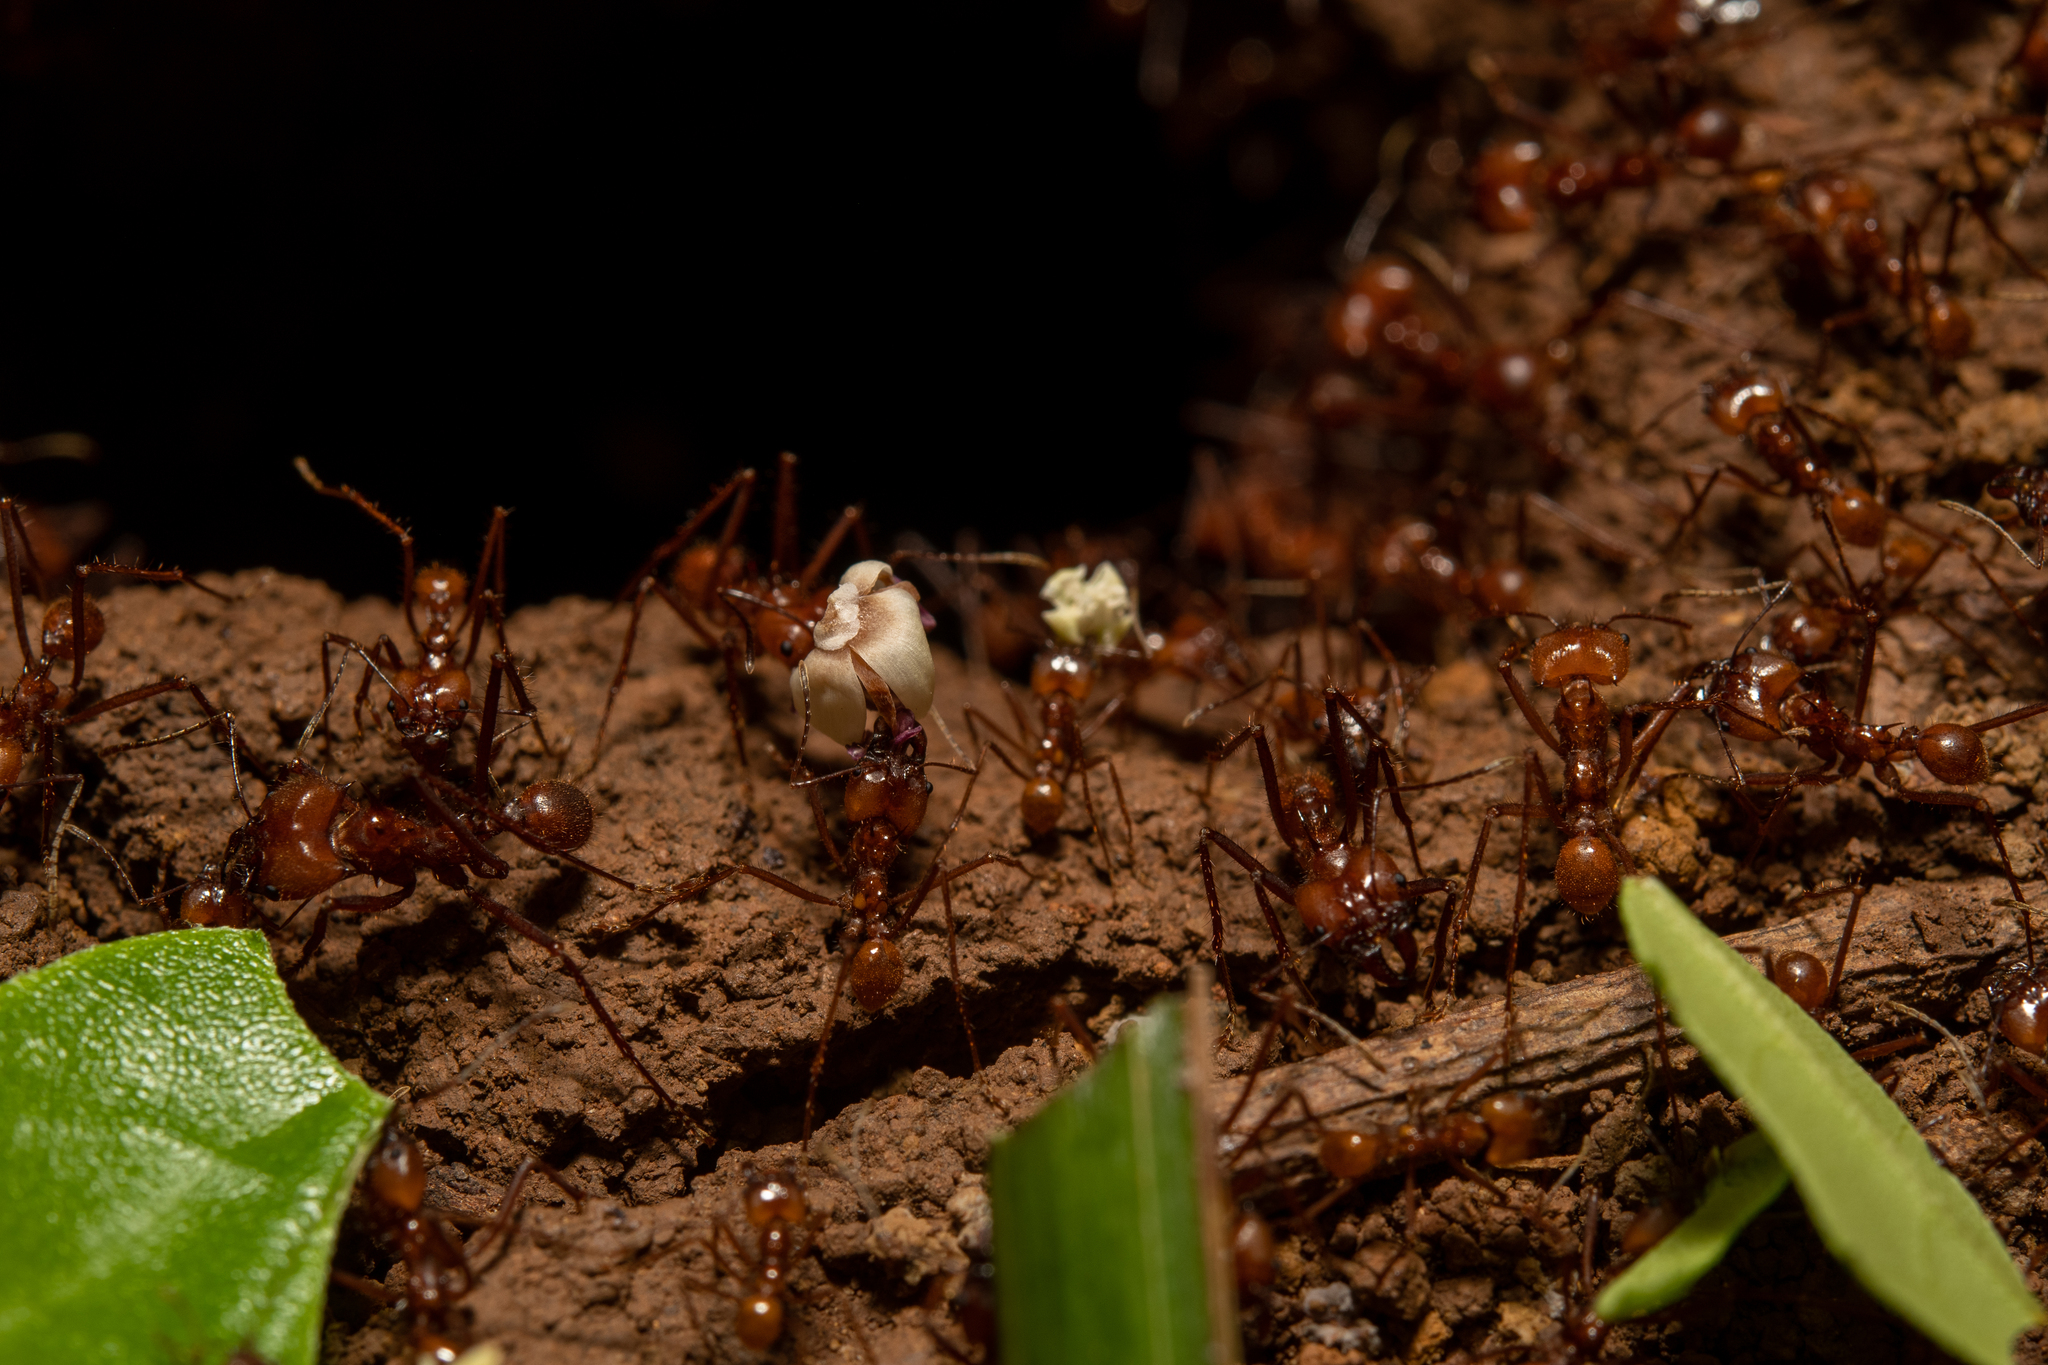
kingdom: Animalia
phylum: Arthropoda
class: Insecta
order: Hymenoptera
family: Formicidae
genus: Atta
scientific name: Atta cephalotes
